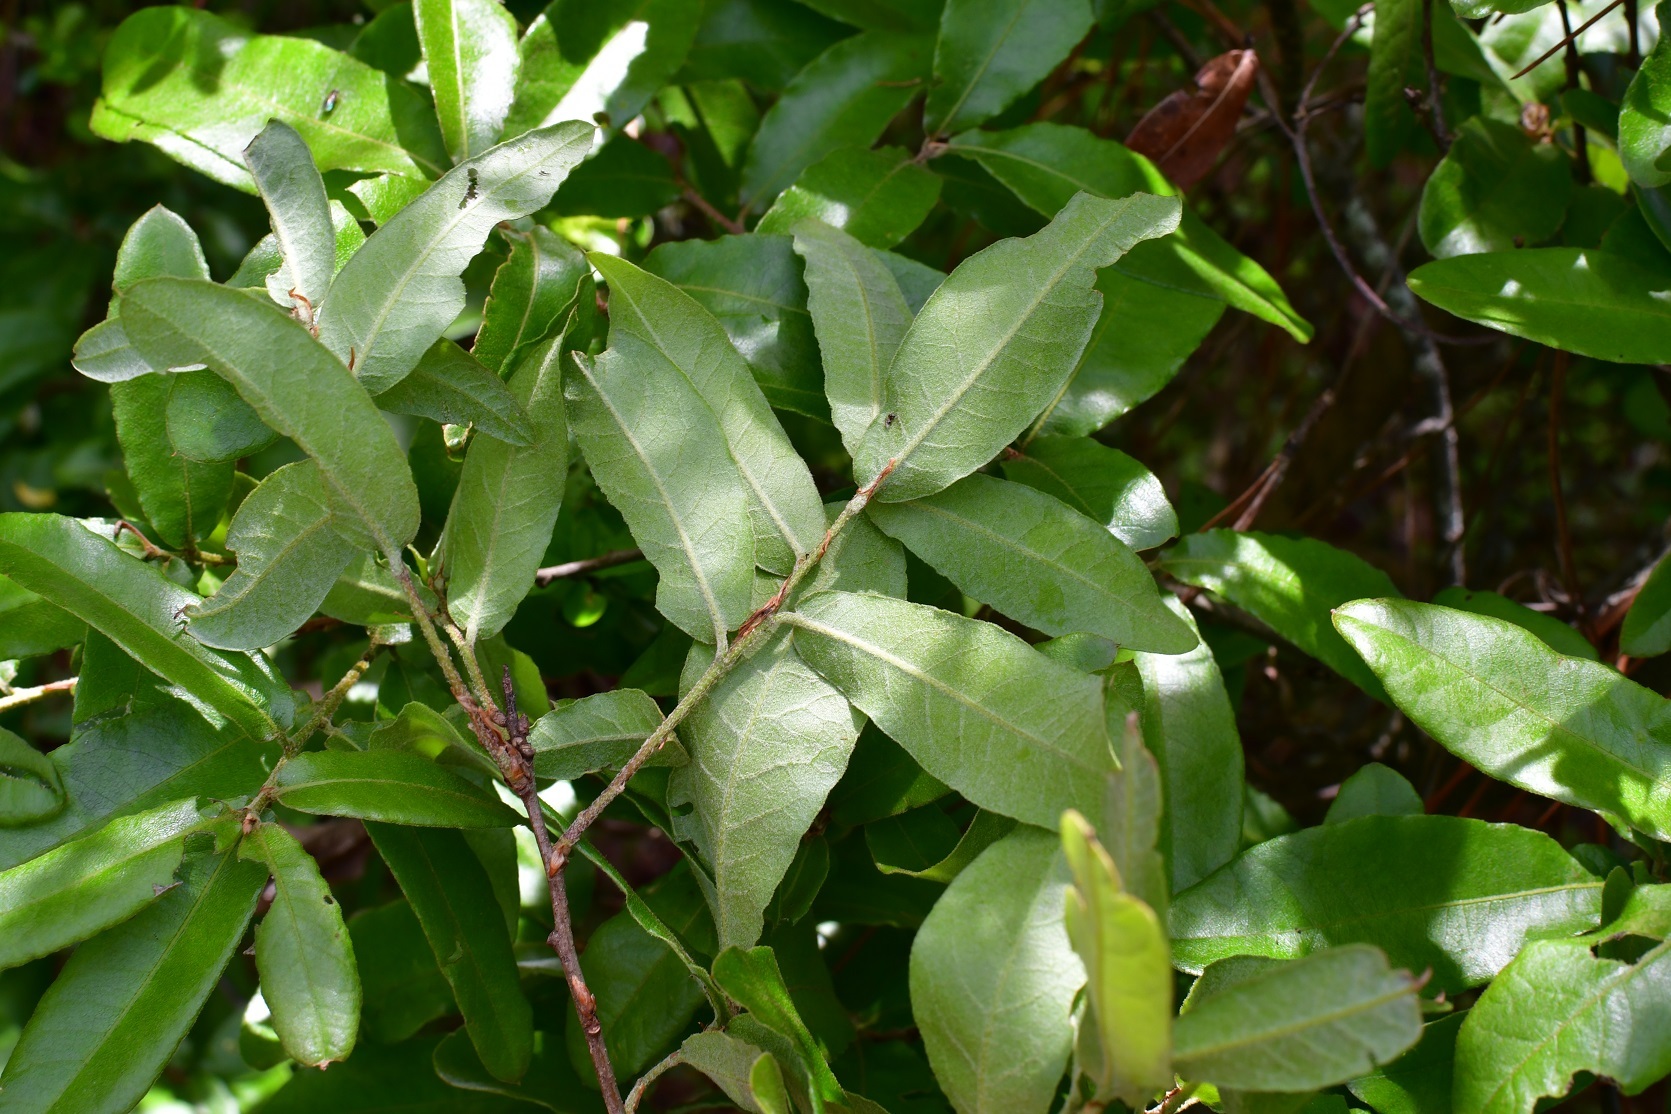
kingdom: Plantae
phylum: Tracheophyta
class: Magnoliopsida
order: Fagales
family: Fagaceae
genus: Quercus
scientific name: Quercus crispipilis
